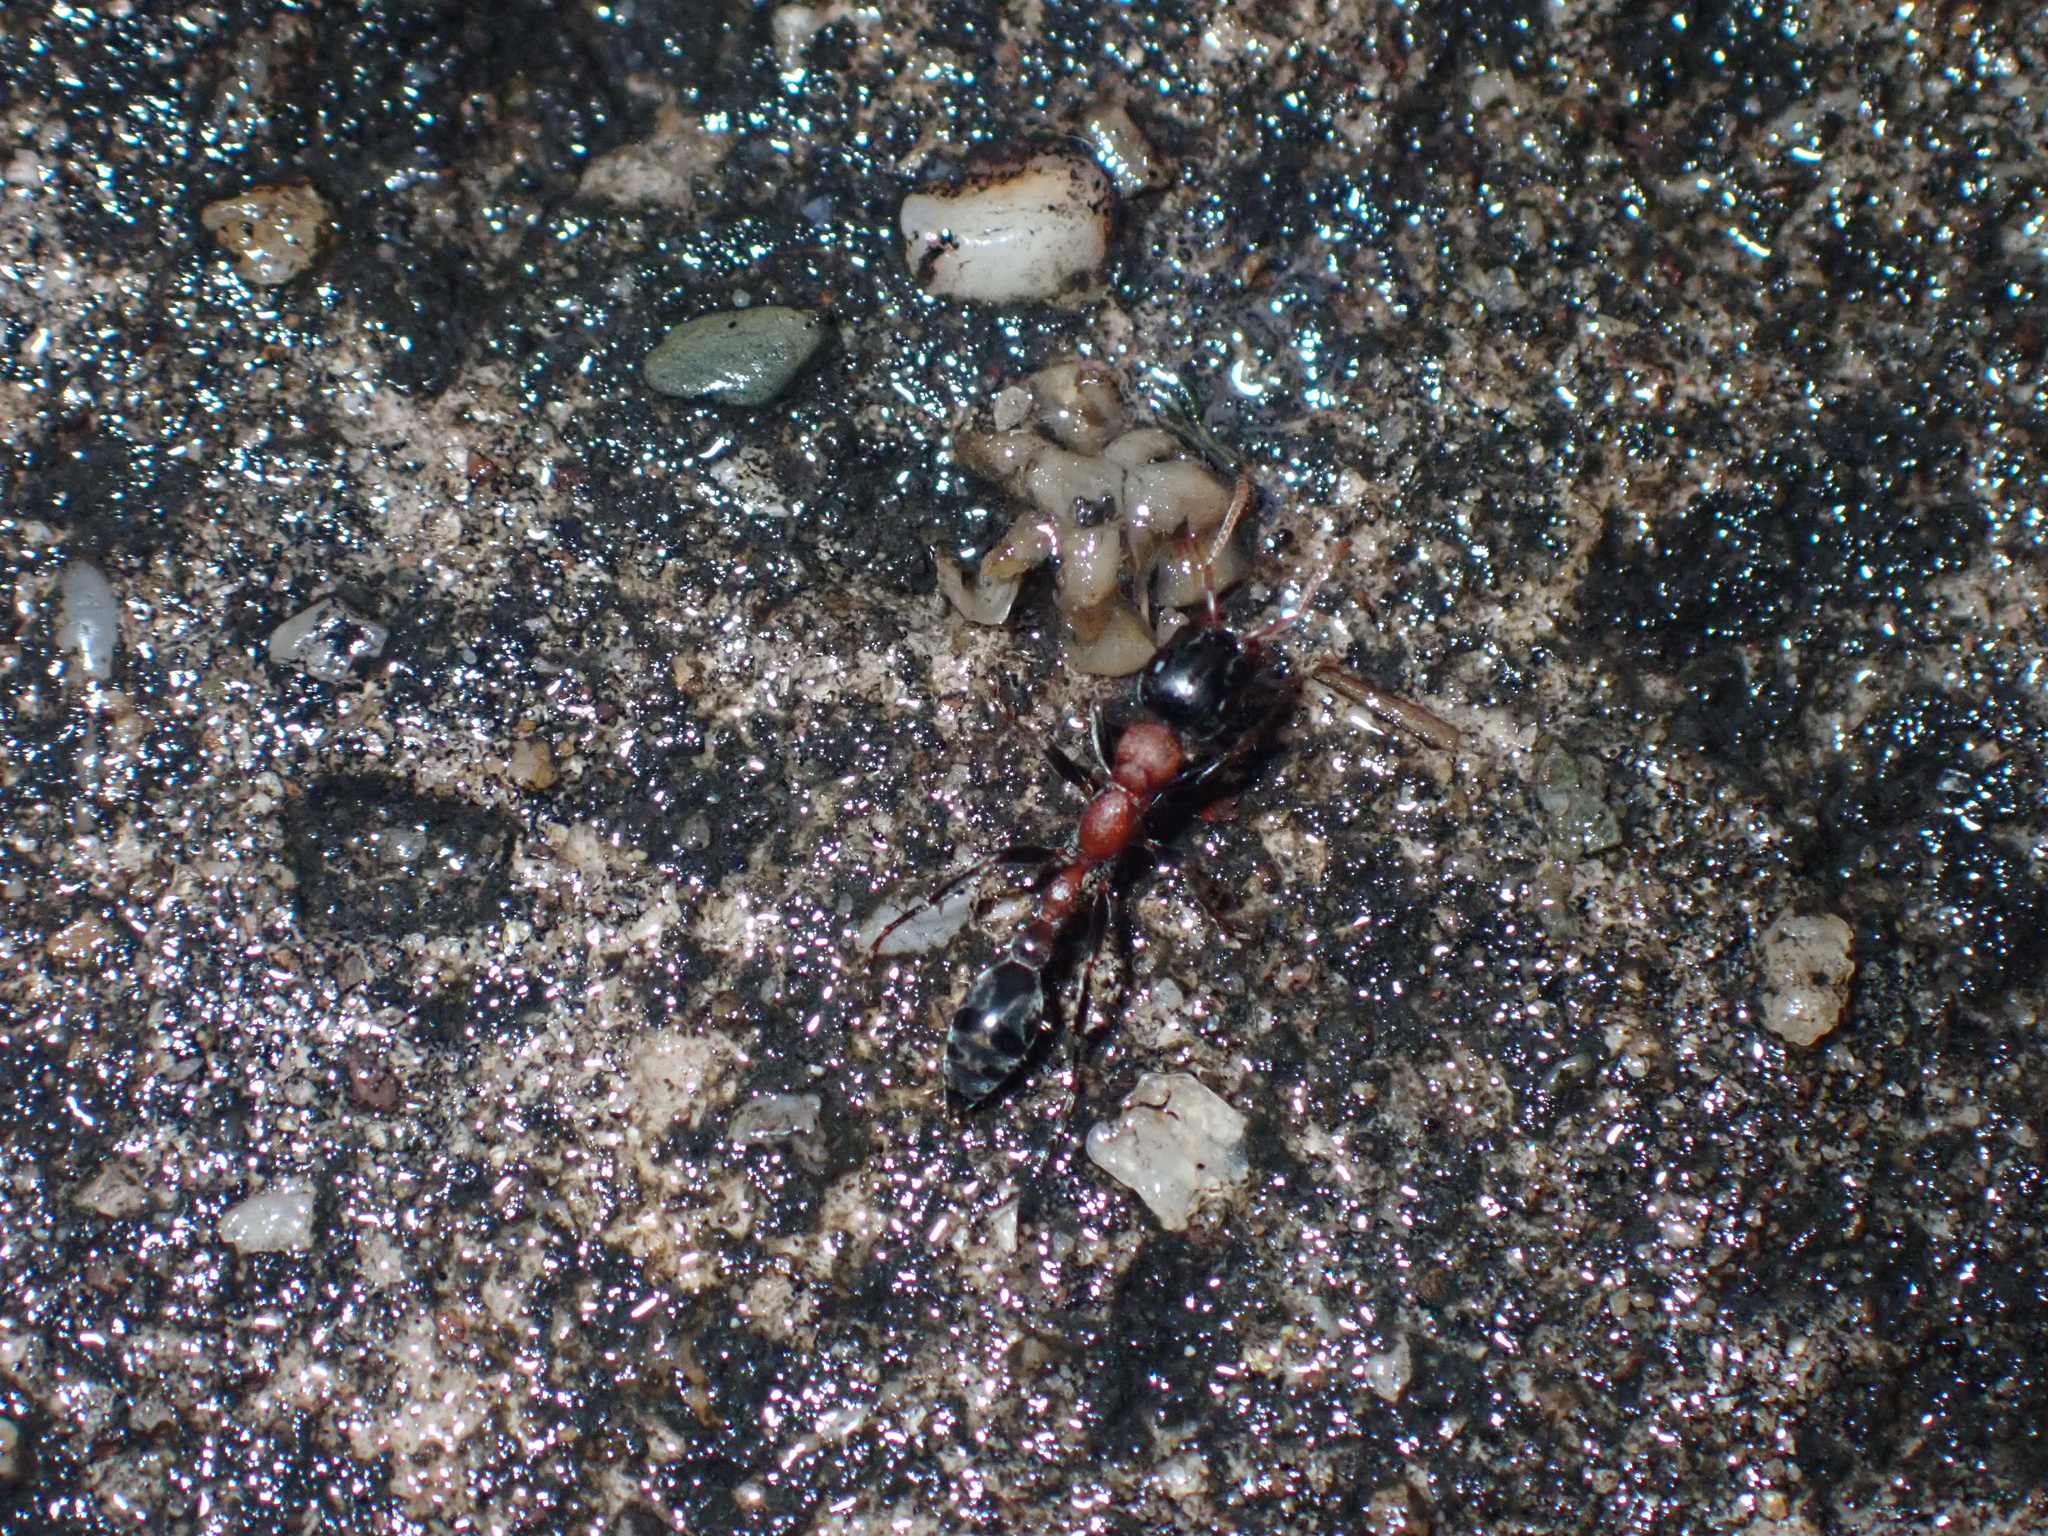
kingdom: Animalia
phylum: Arthropoda
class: Insecta
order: Hymenoptera
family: Formicidae
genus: Tetraponera
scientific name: Tetraponera rufonigra
